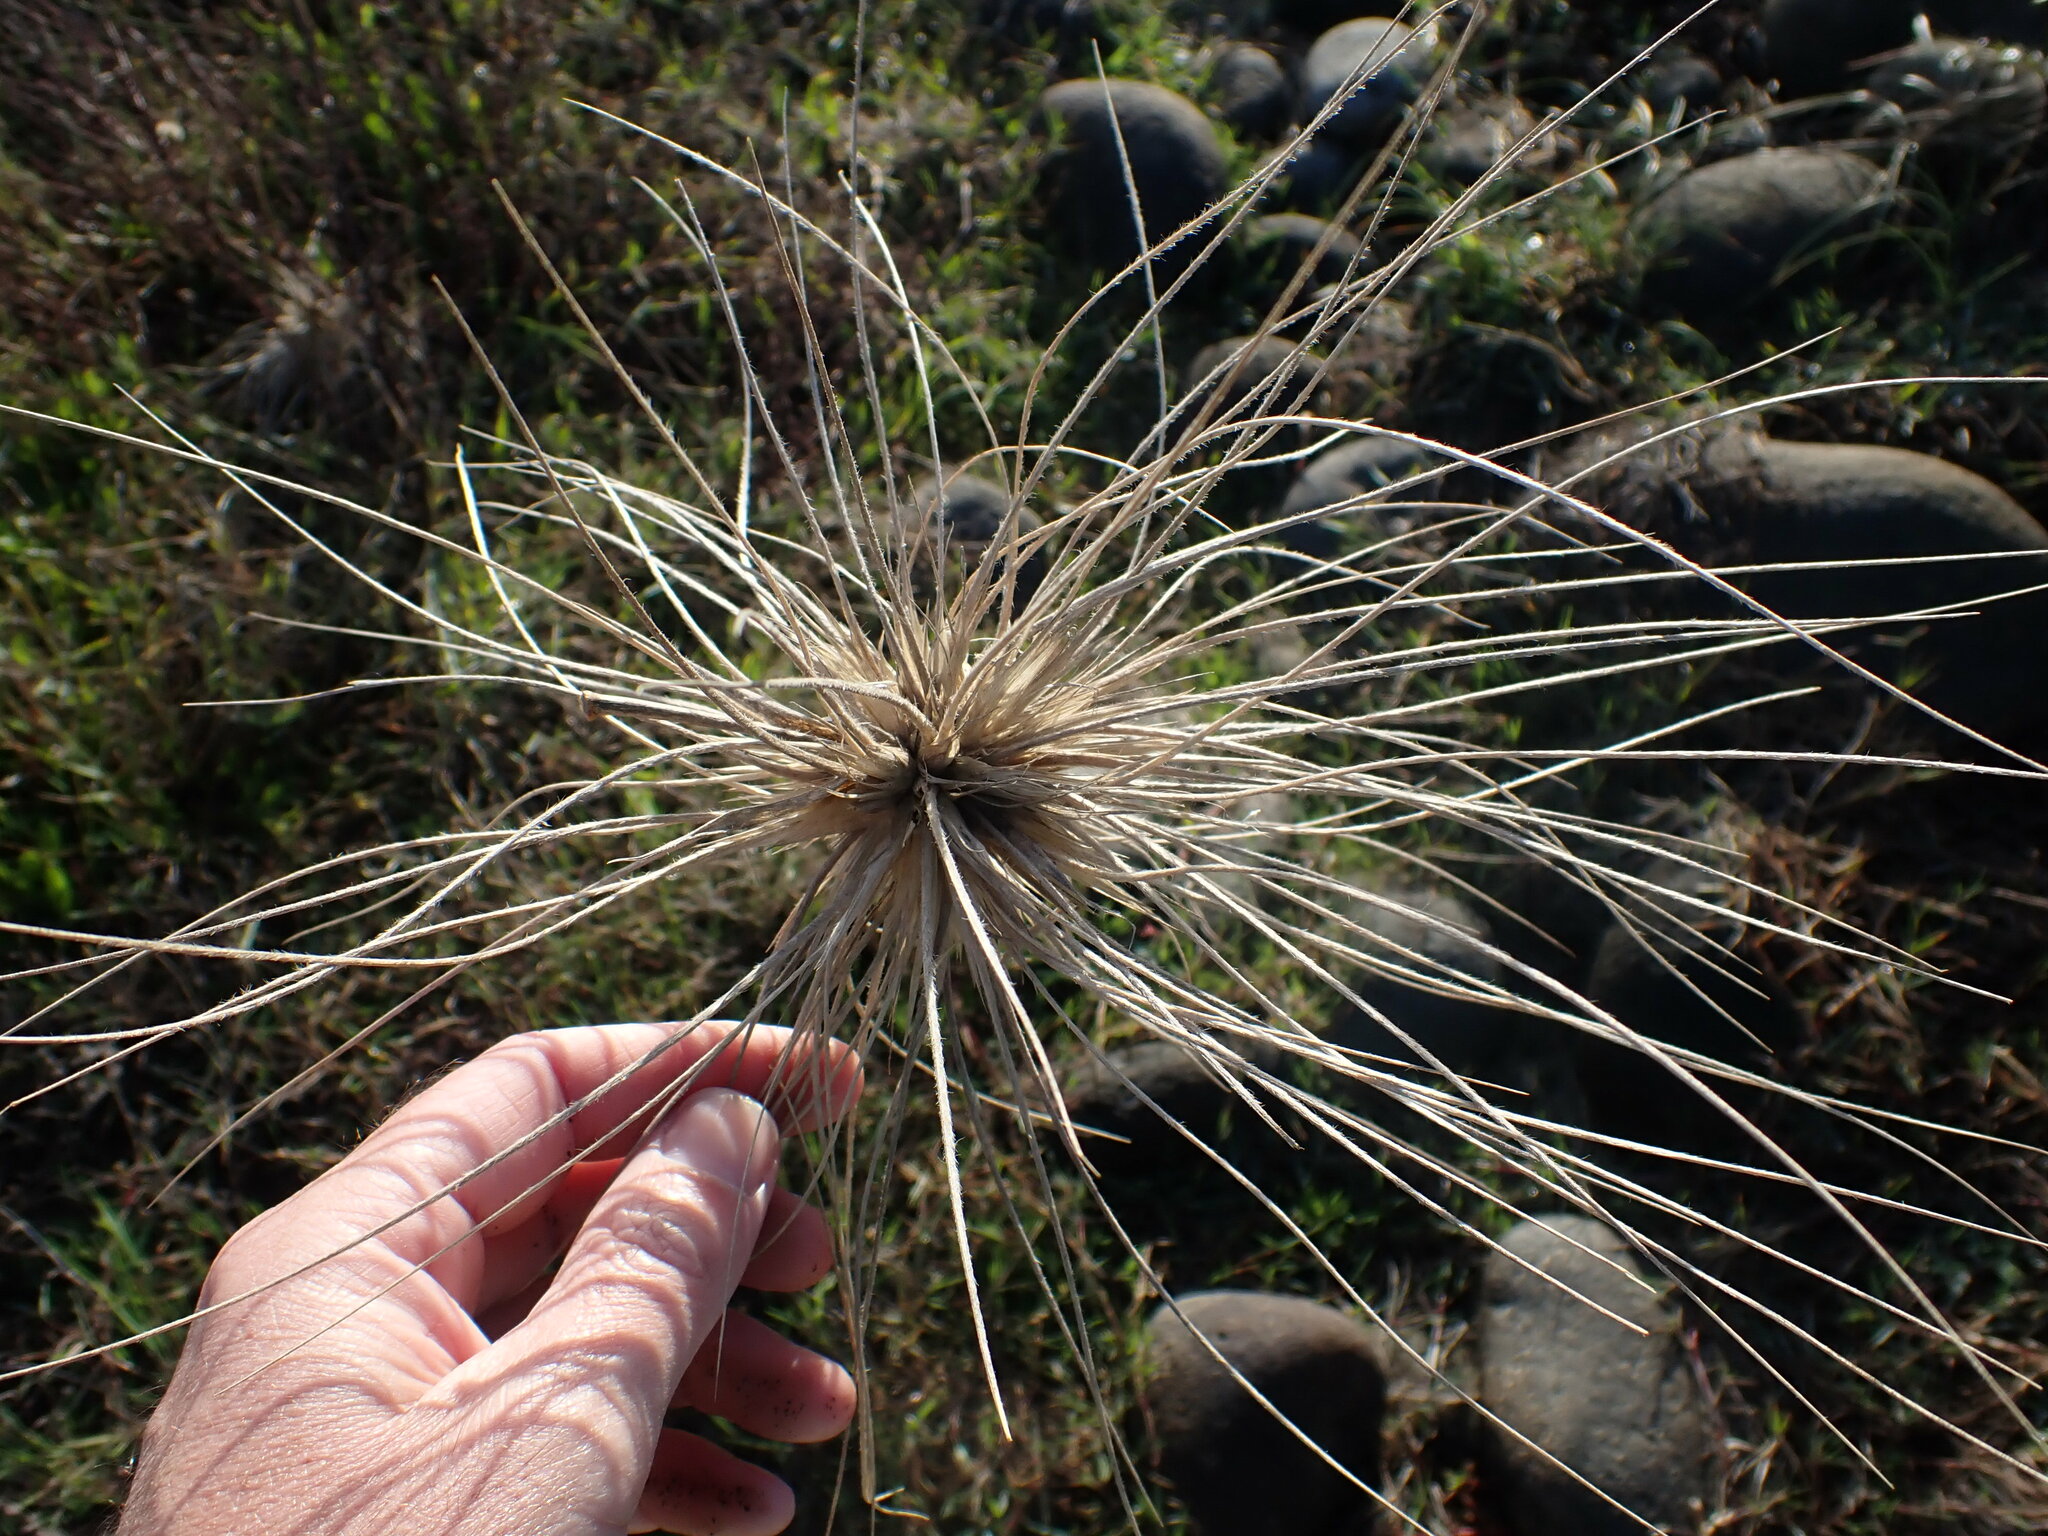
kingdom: Plantae
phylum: Tracheophyta
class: Liliopsida
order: Poales
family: Poaceae
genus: Spinifex
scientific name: Spinifex sericeus
